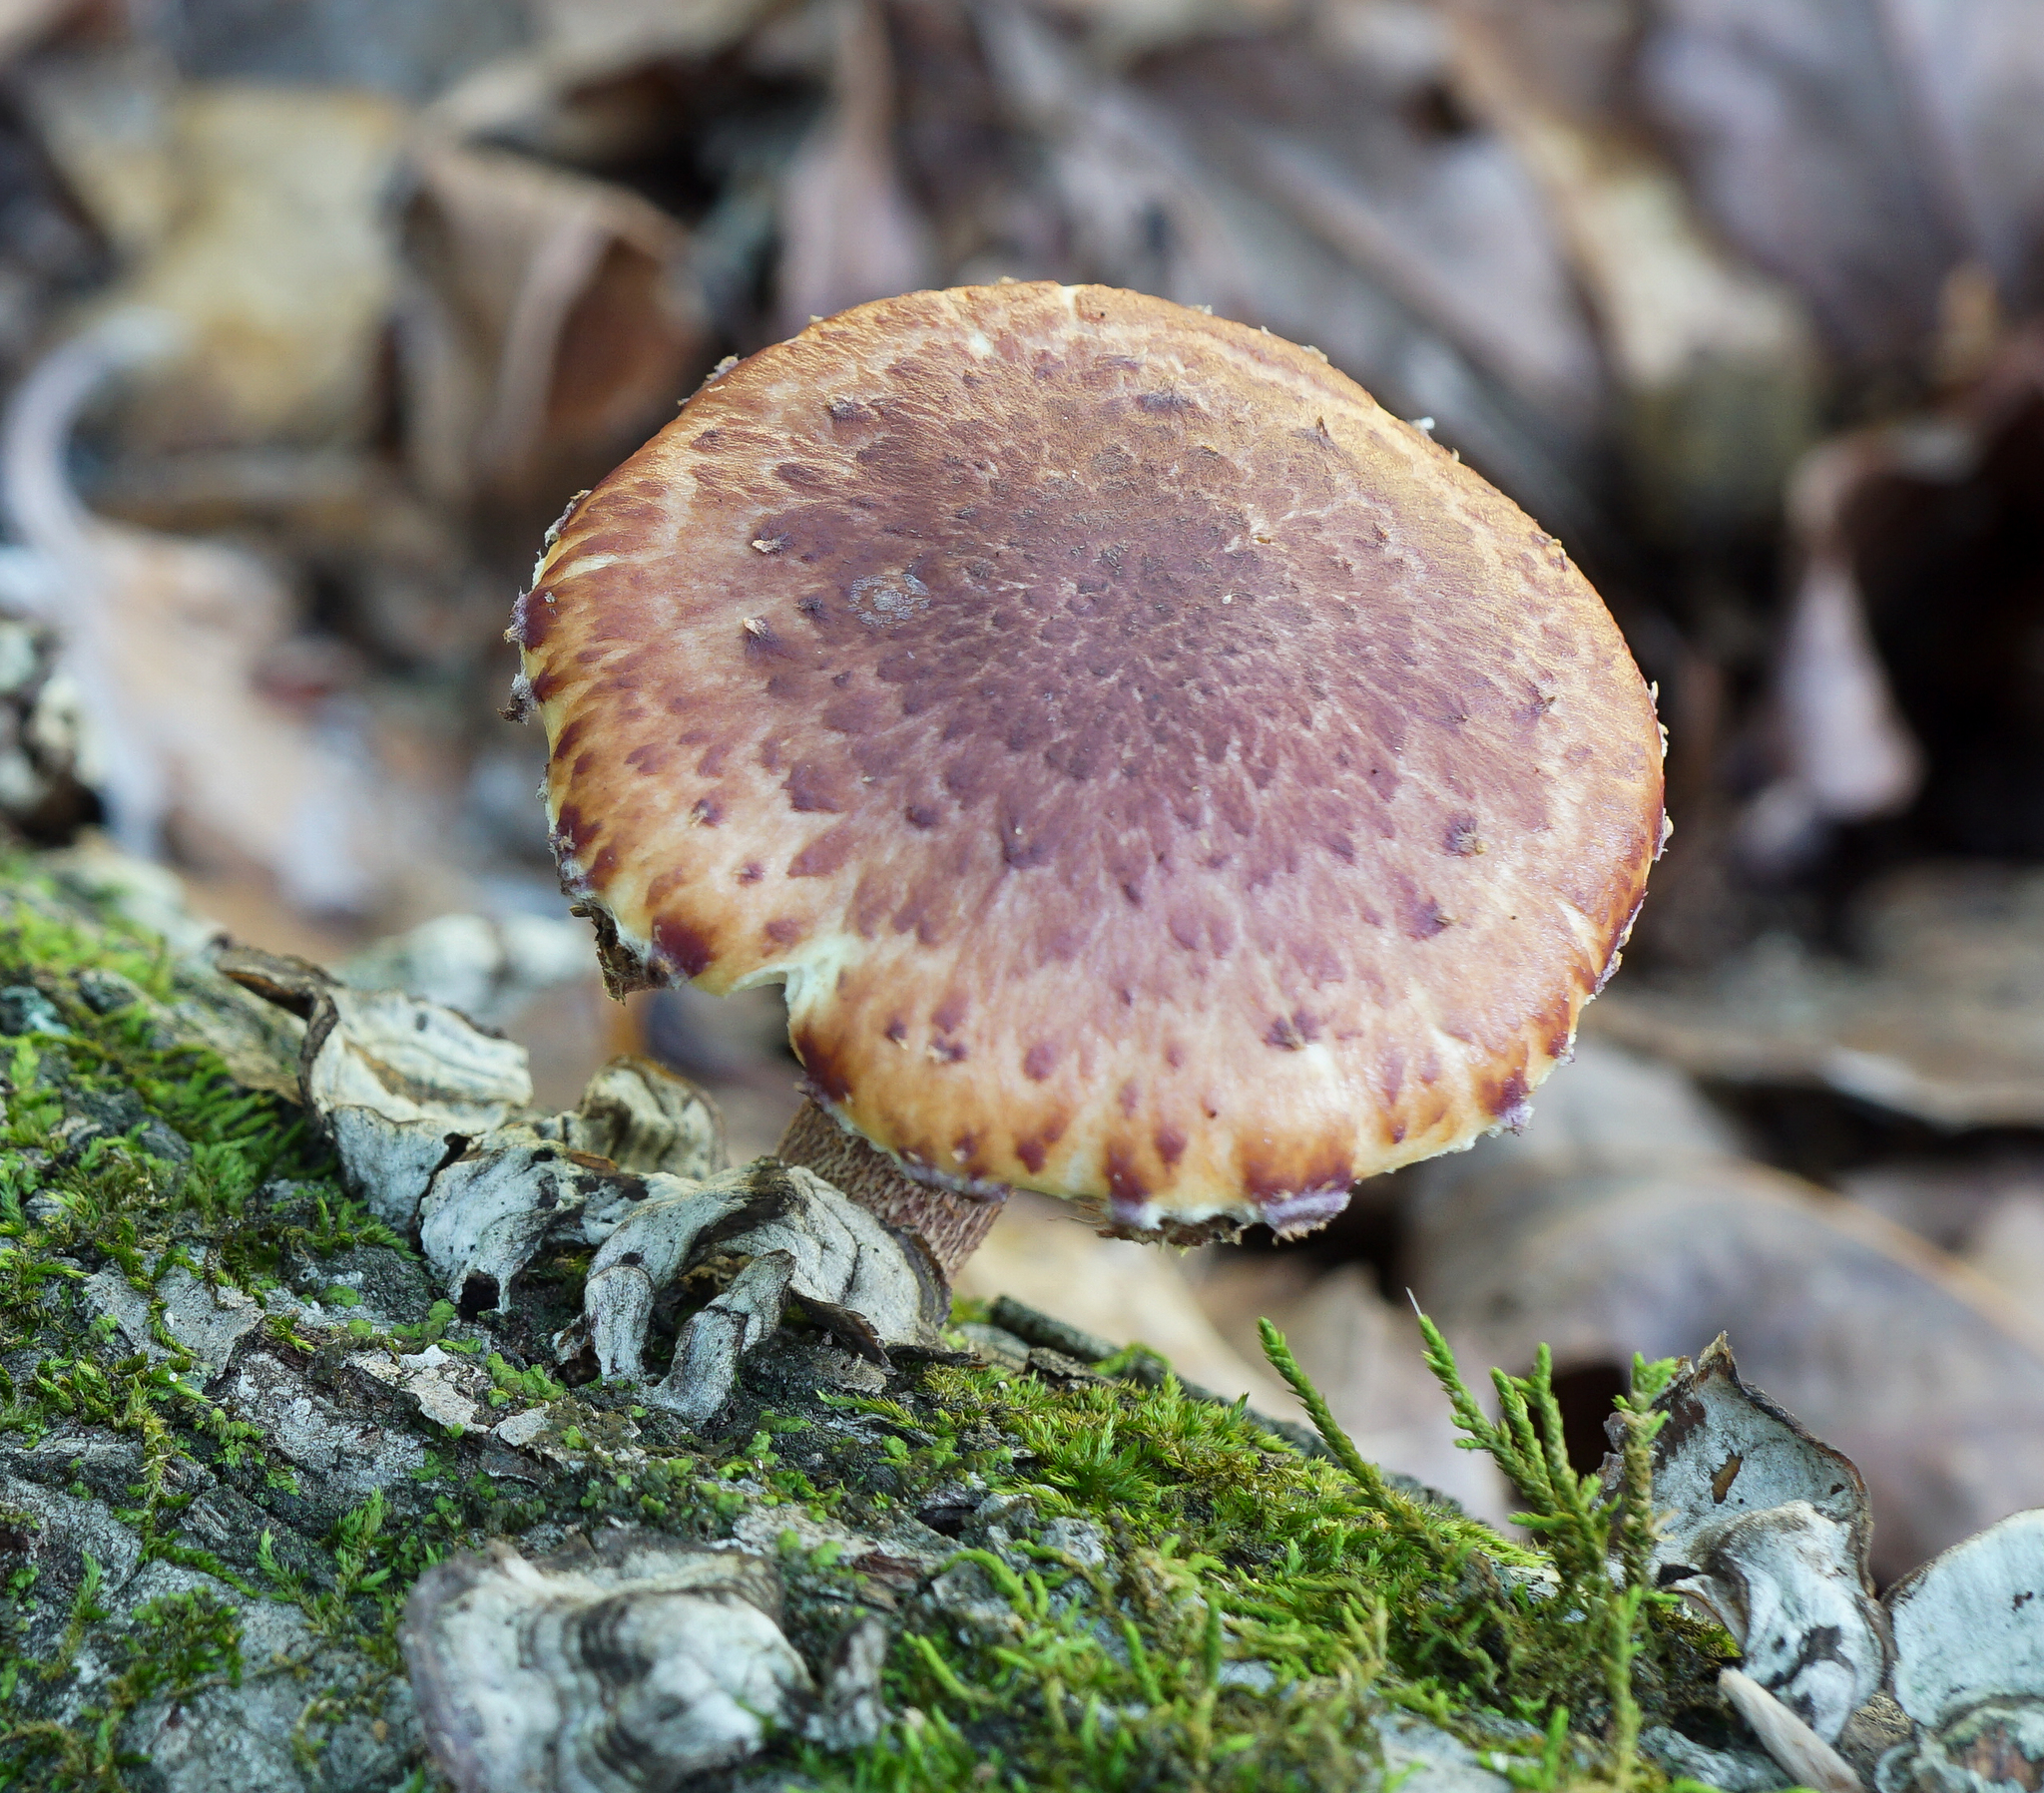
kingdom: Fungi
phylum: Basidiomycota
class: Agaricomycetes
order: Agaricales
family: Strophariaceae
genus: Pholiota
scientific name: Pholiota polychroa
